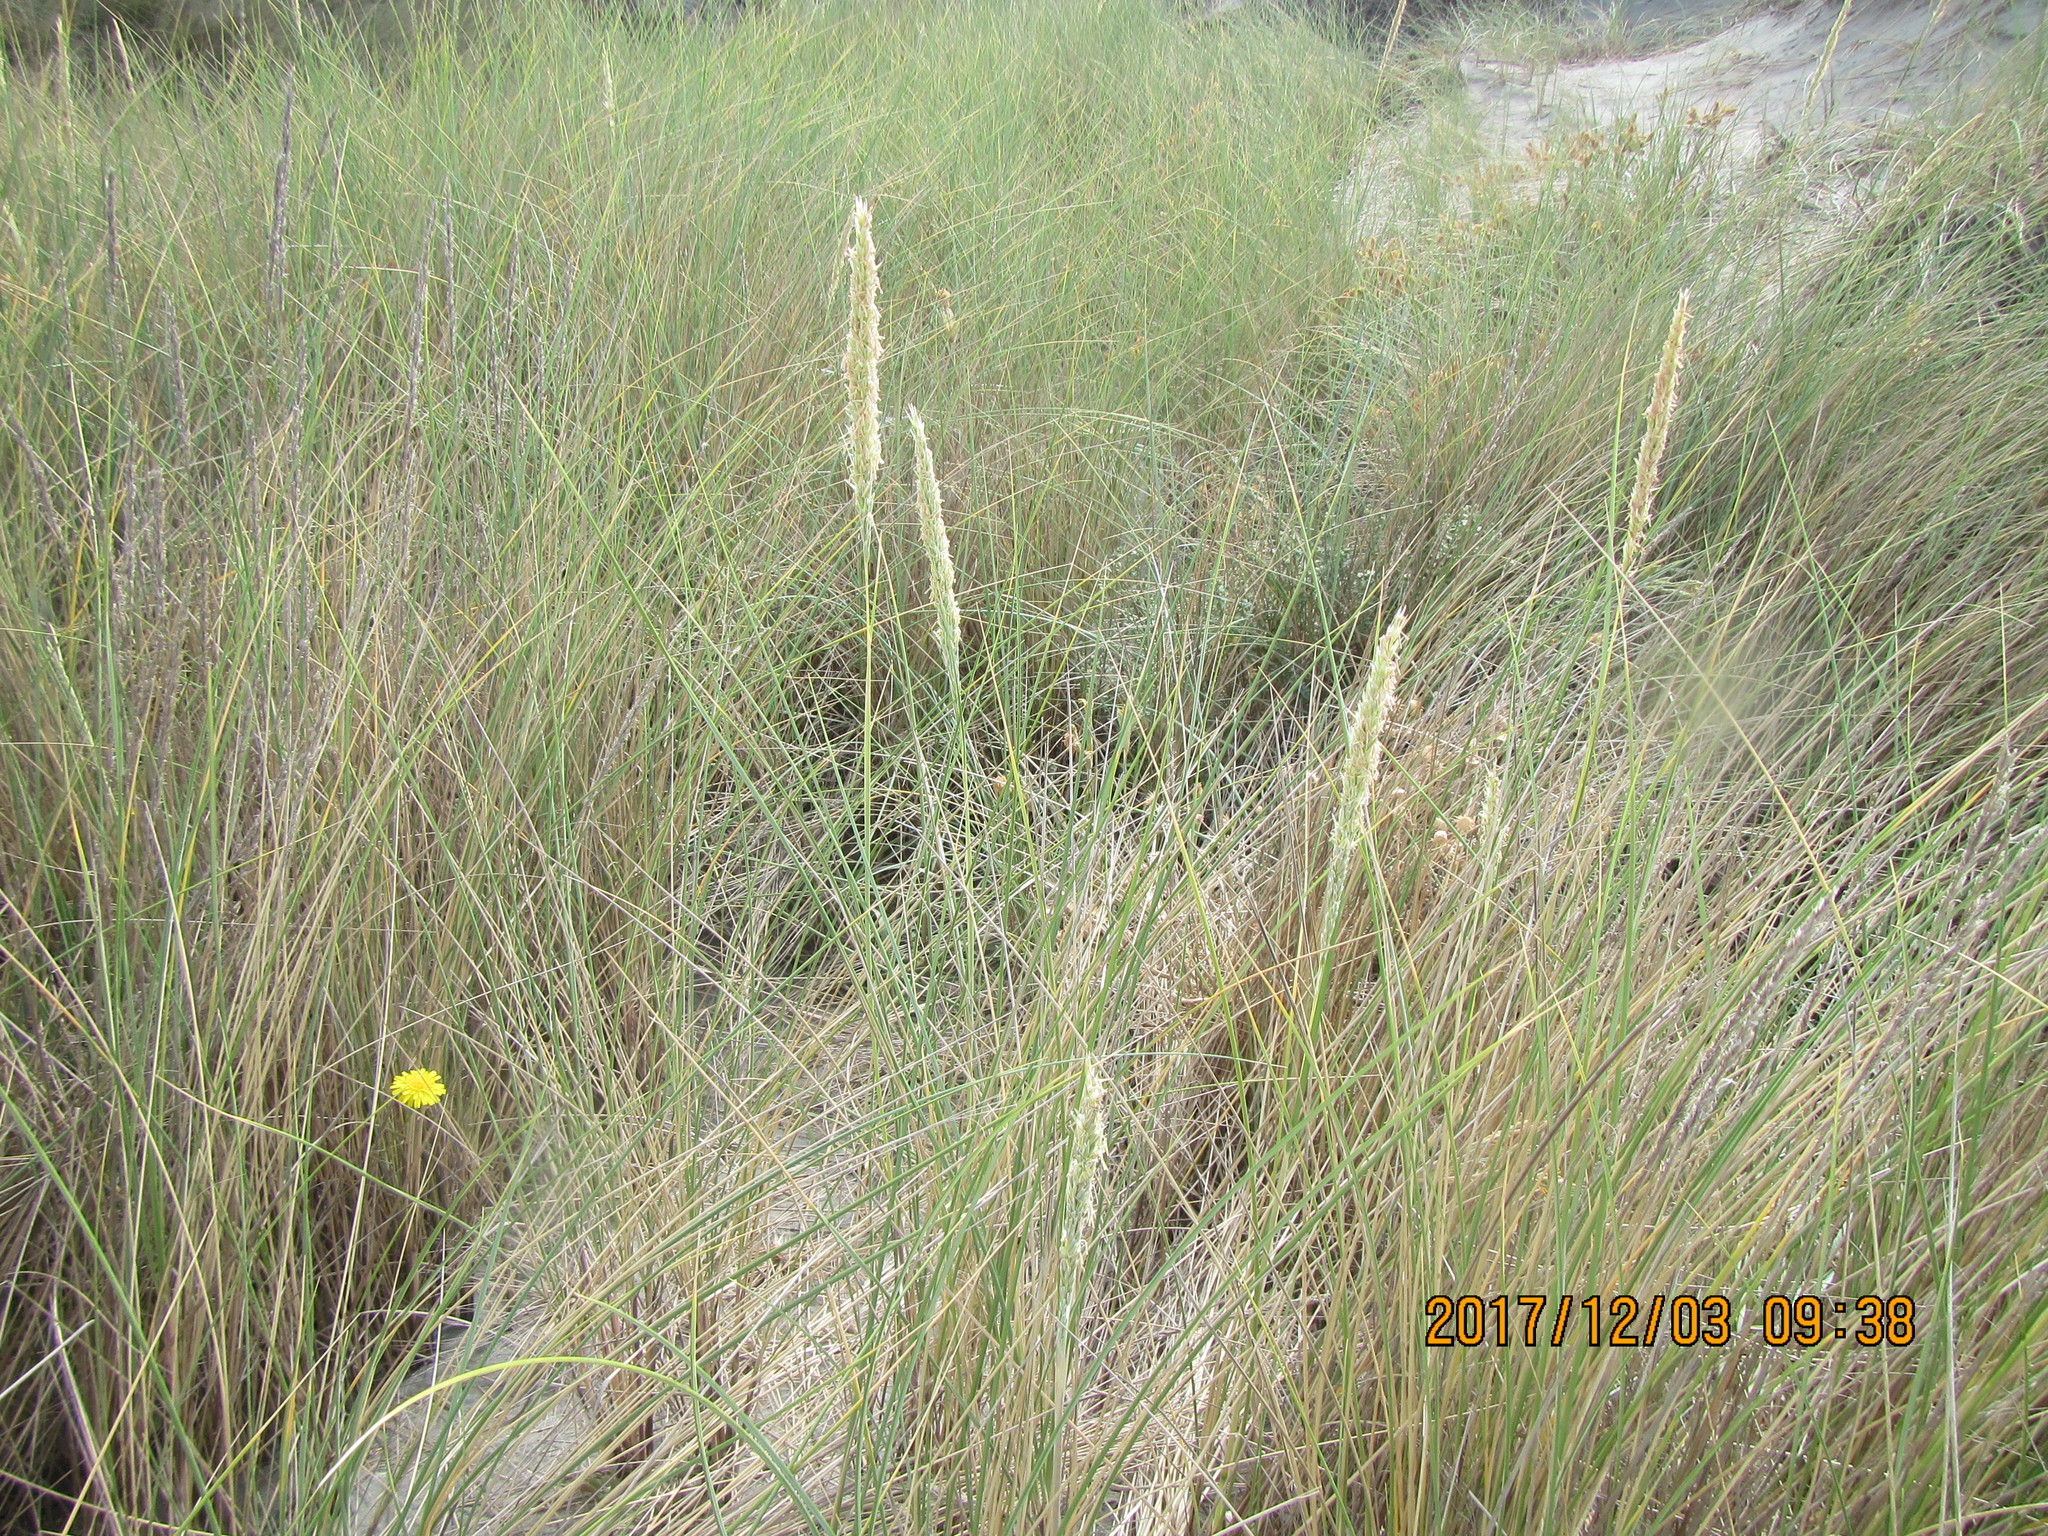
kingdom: Plantae
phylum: Tracheophyta
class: Liliopsida
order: Poales
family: Poaceae
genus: Calamagrostis
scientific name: Calamagrostis arenaria
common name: European beachgrass
